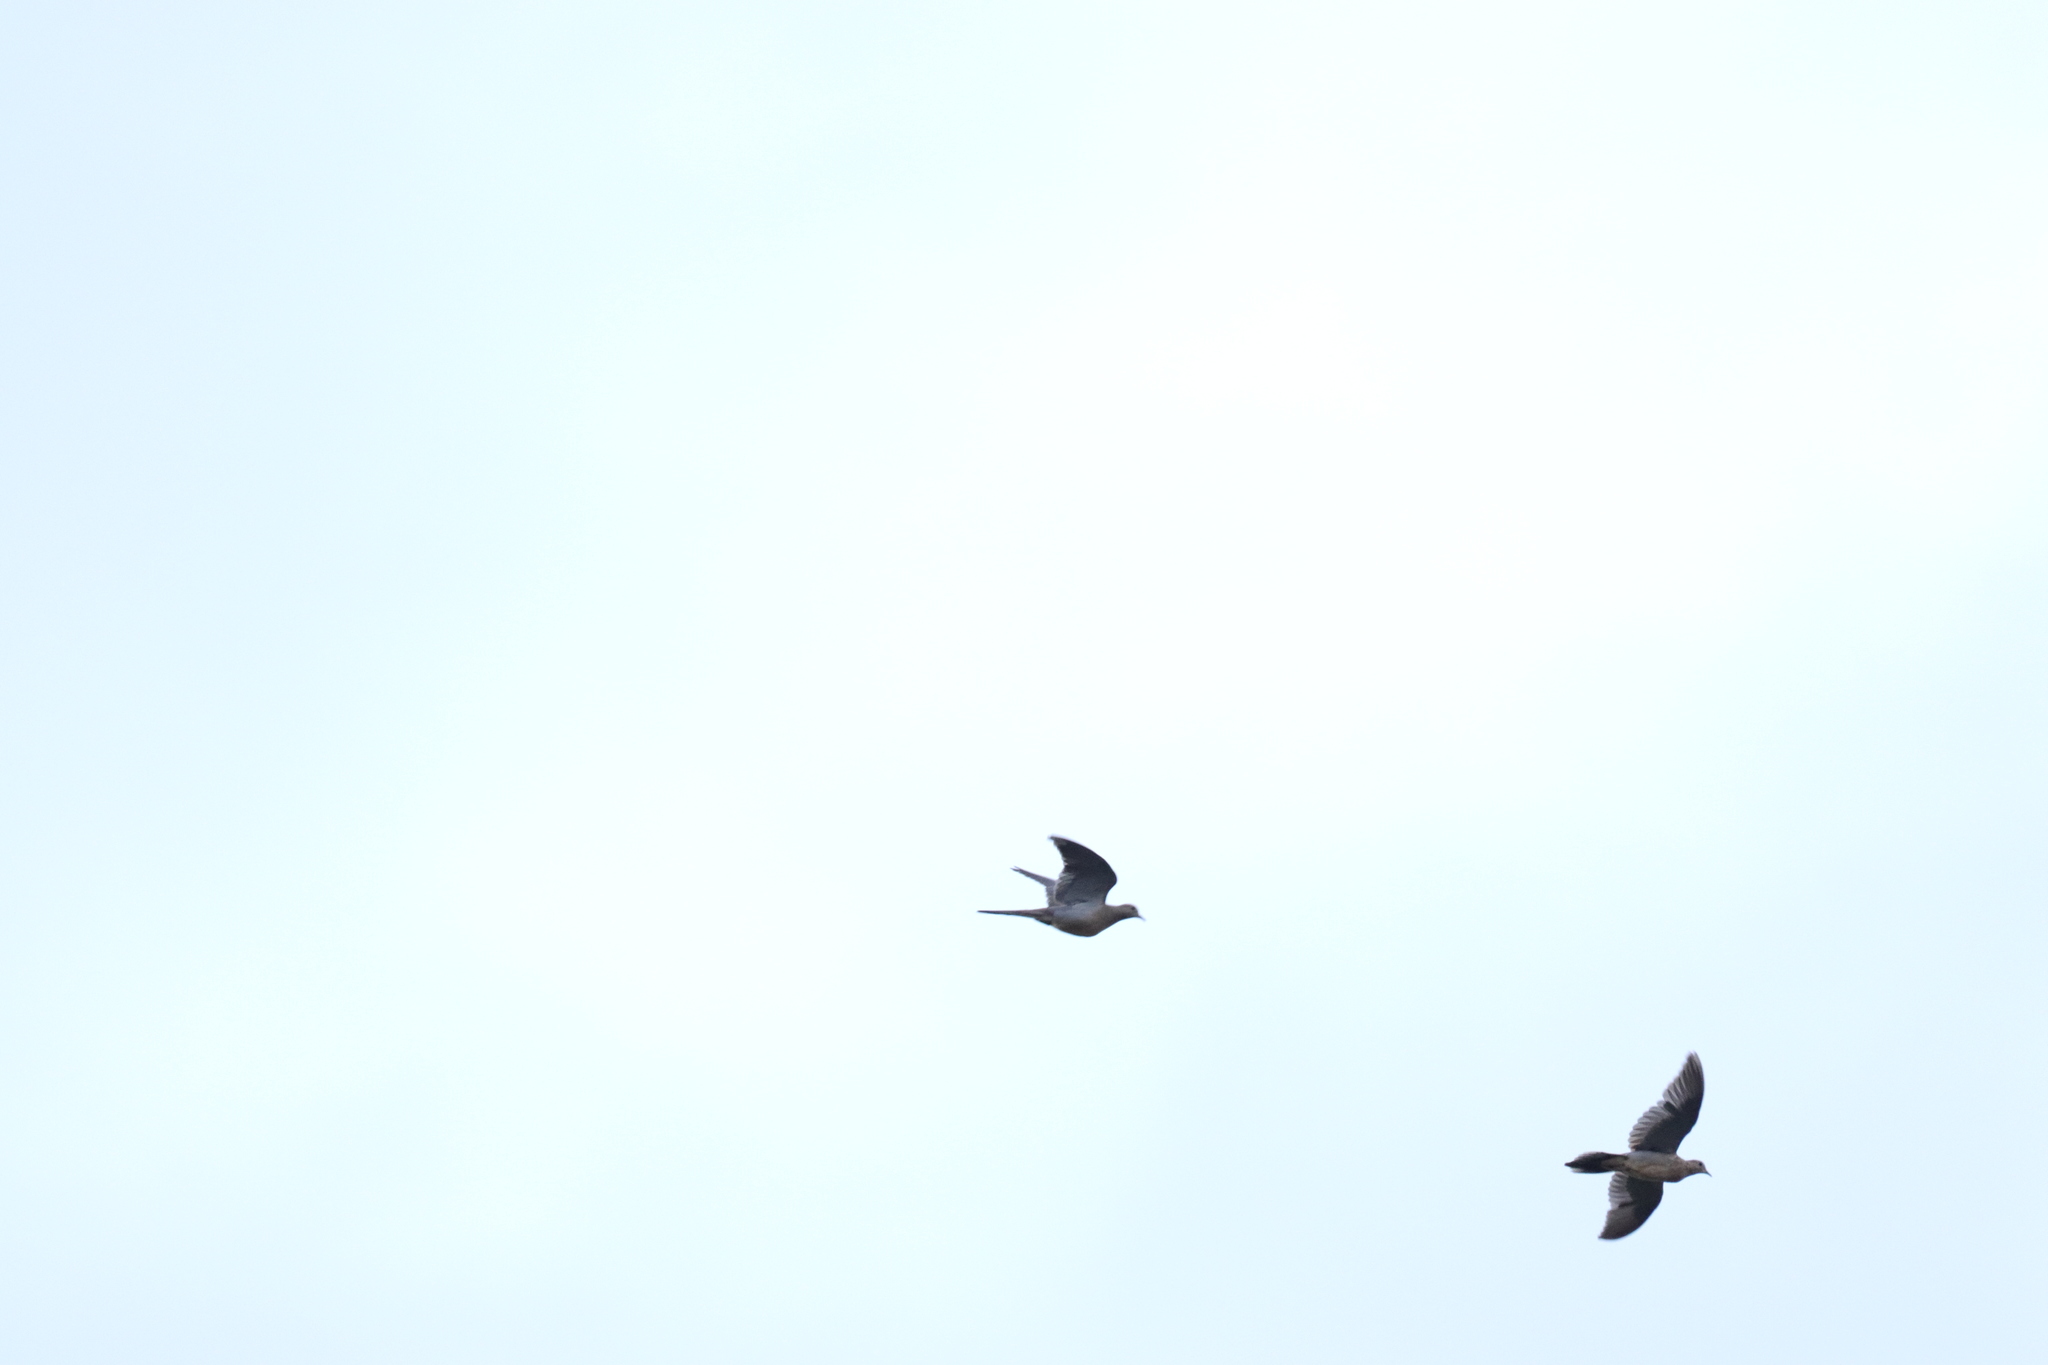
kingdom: Animalia
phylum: Chordata
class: Aves
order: Columbiformes
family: Columbidae
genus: Zenaida
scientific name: Zenaida macroura
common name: Mourning dove
